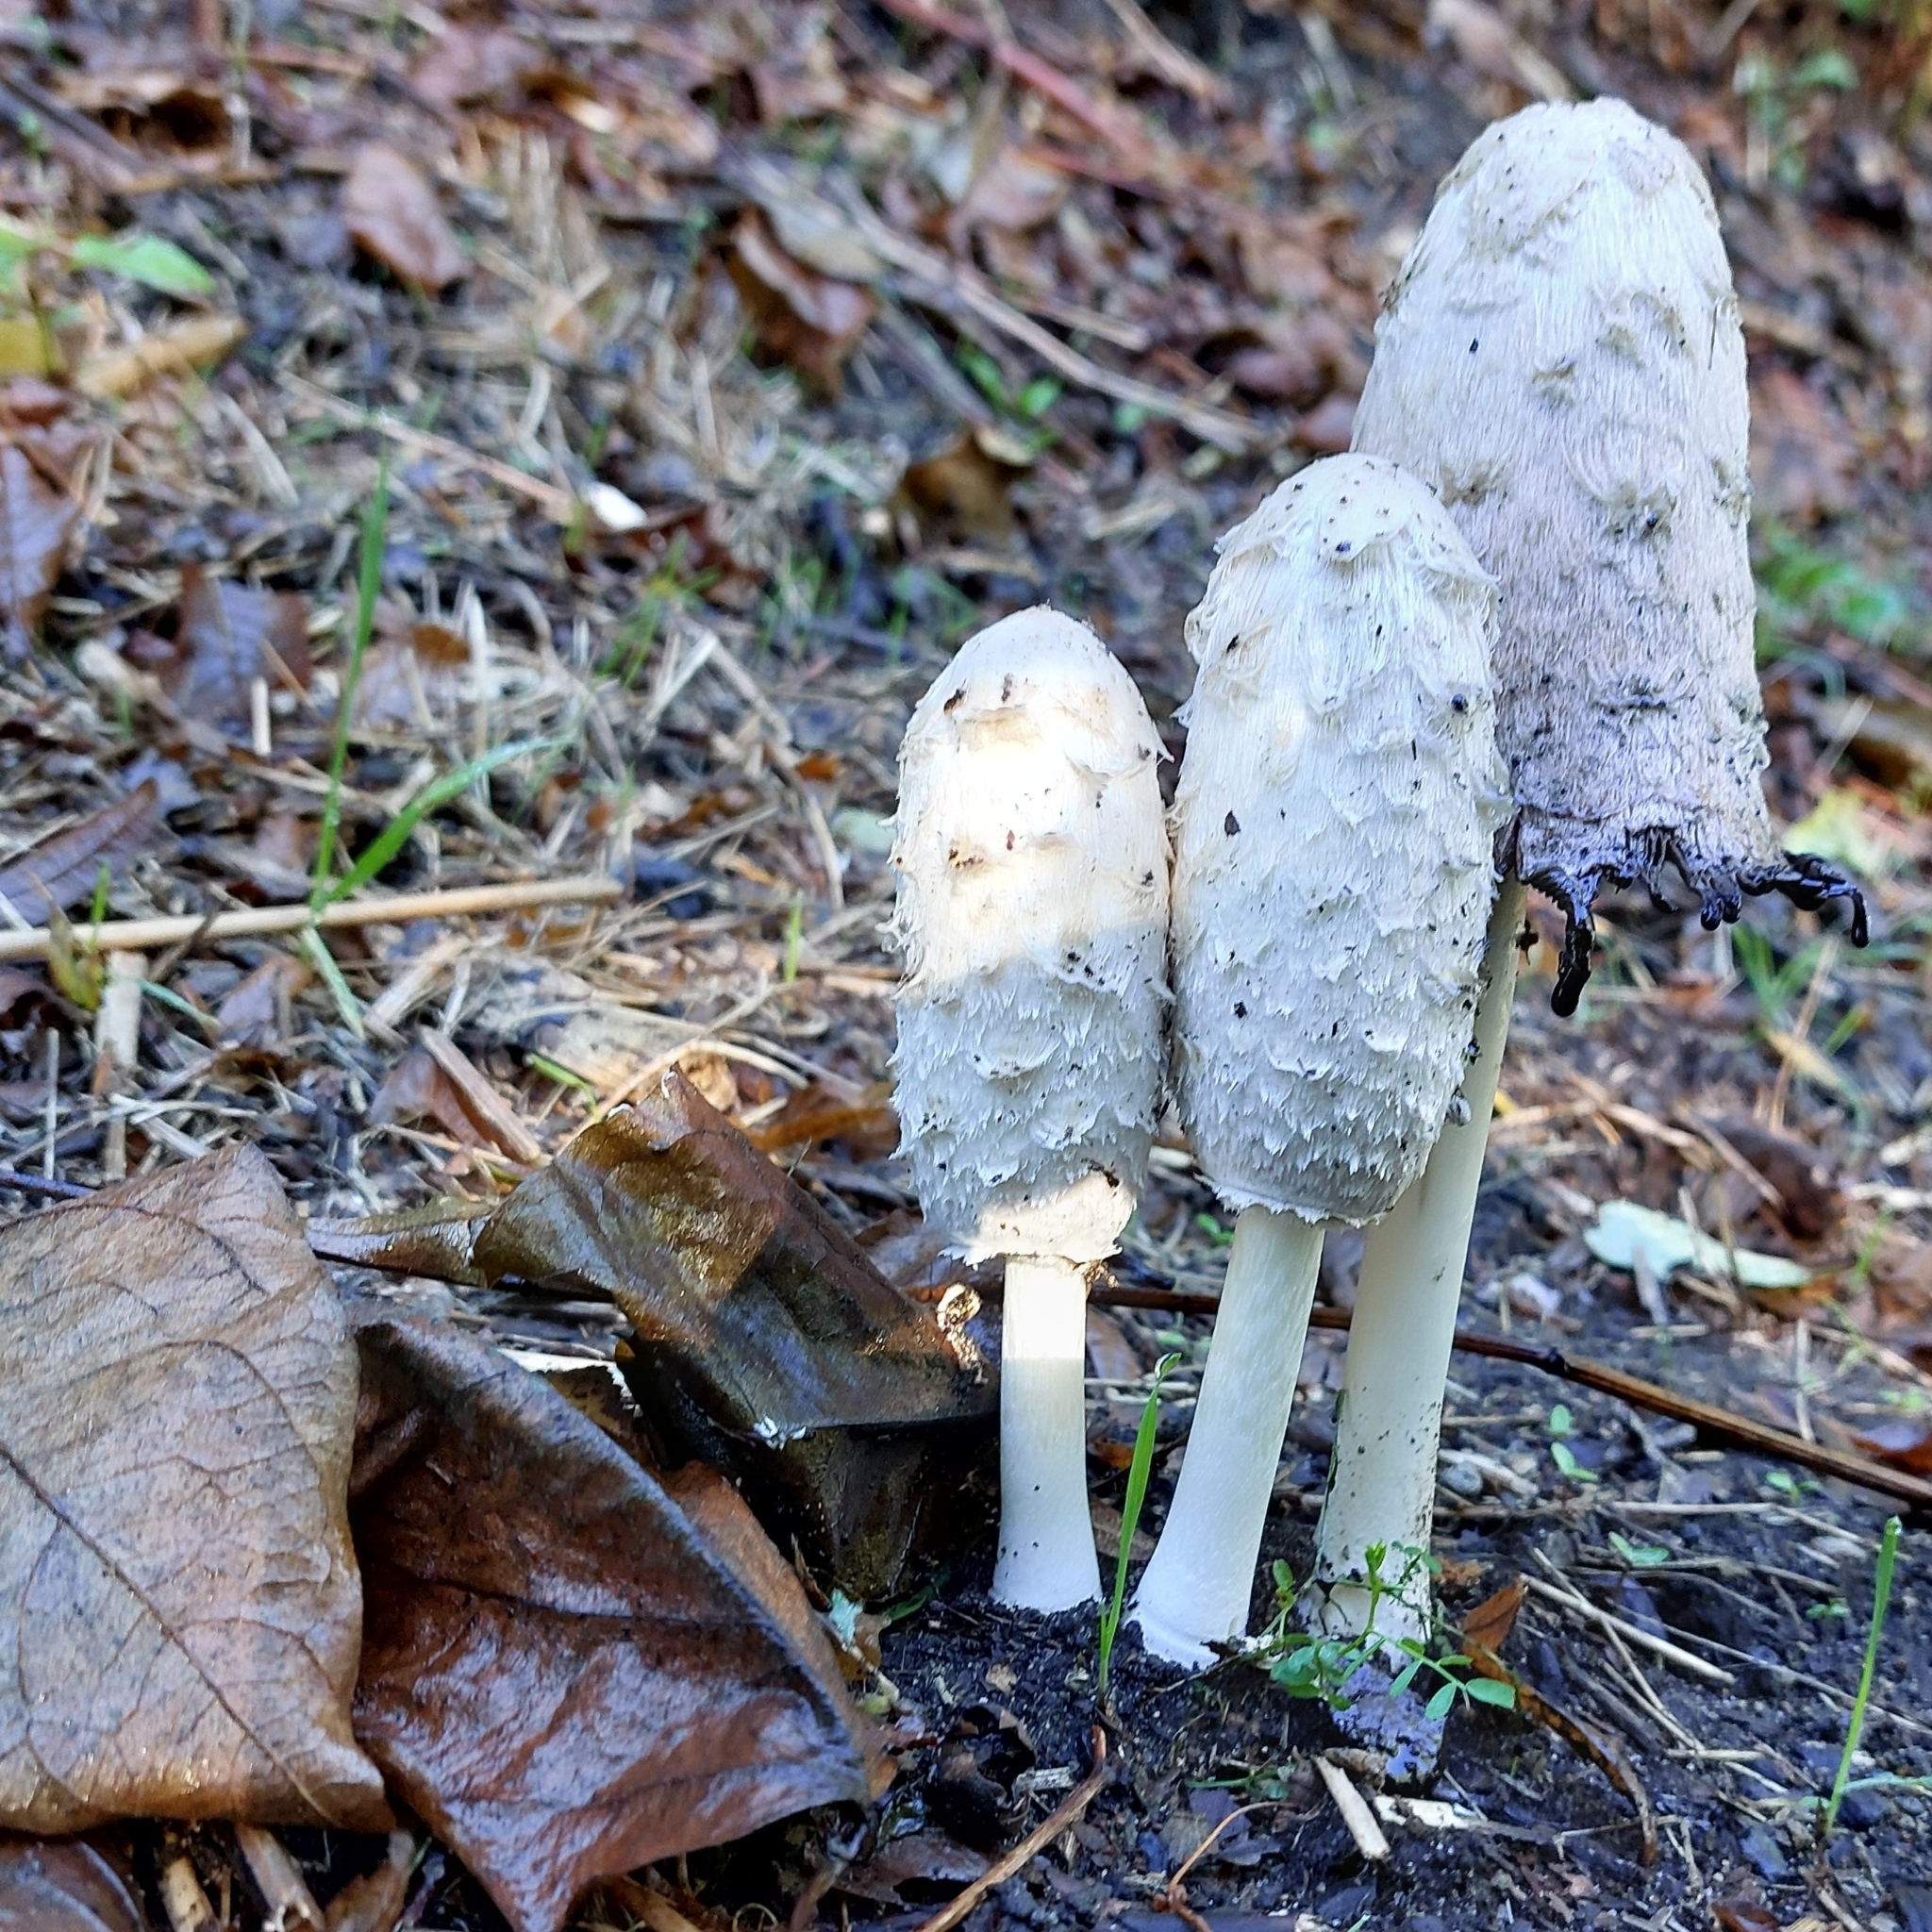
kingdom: Fungi
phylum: Basidiomycota
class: Agaricomycetes
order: Agaricales
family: Agaricaceae
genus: Coprinus
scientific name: Coprinus comatus
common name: Lawyer's wig
